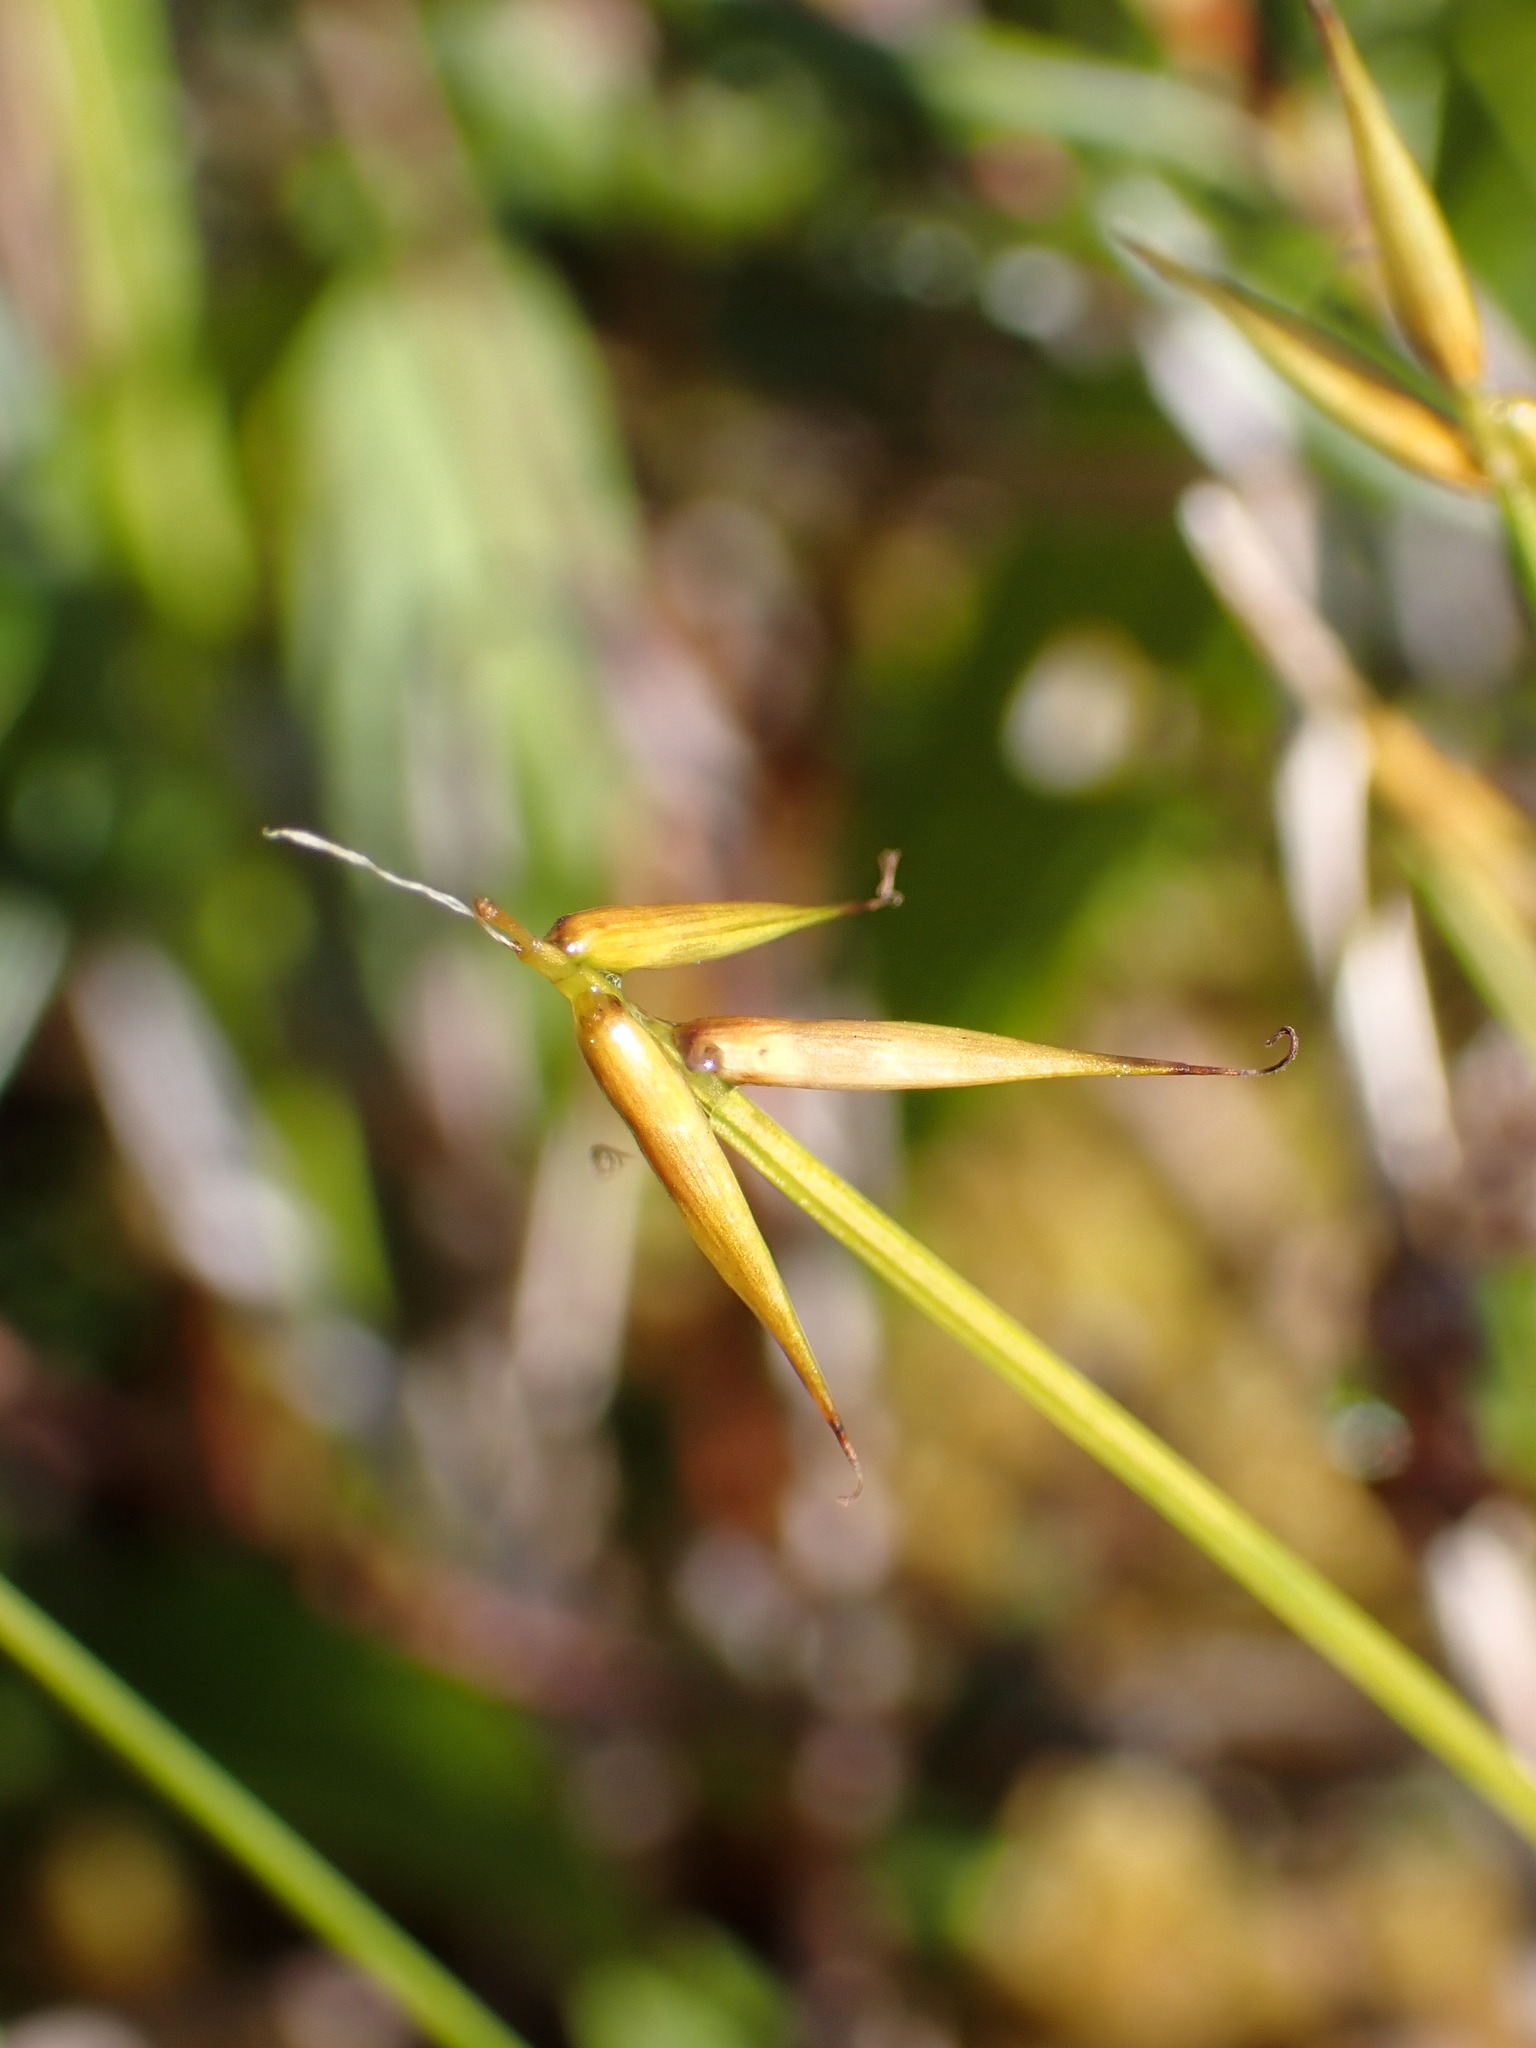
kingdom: Plantae
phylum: Tracheophyta
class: Liliopsida
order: Poales
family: Cyperaceae
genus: Carex
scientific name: Carex pauciflora
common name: Few-flowered sedge
